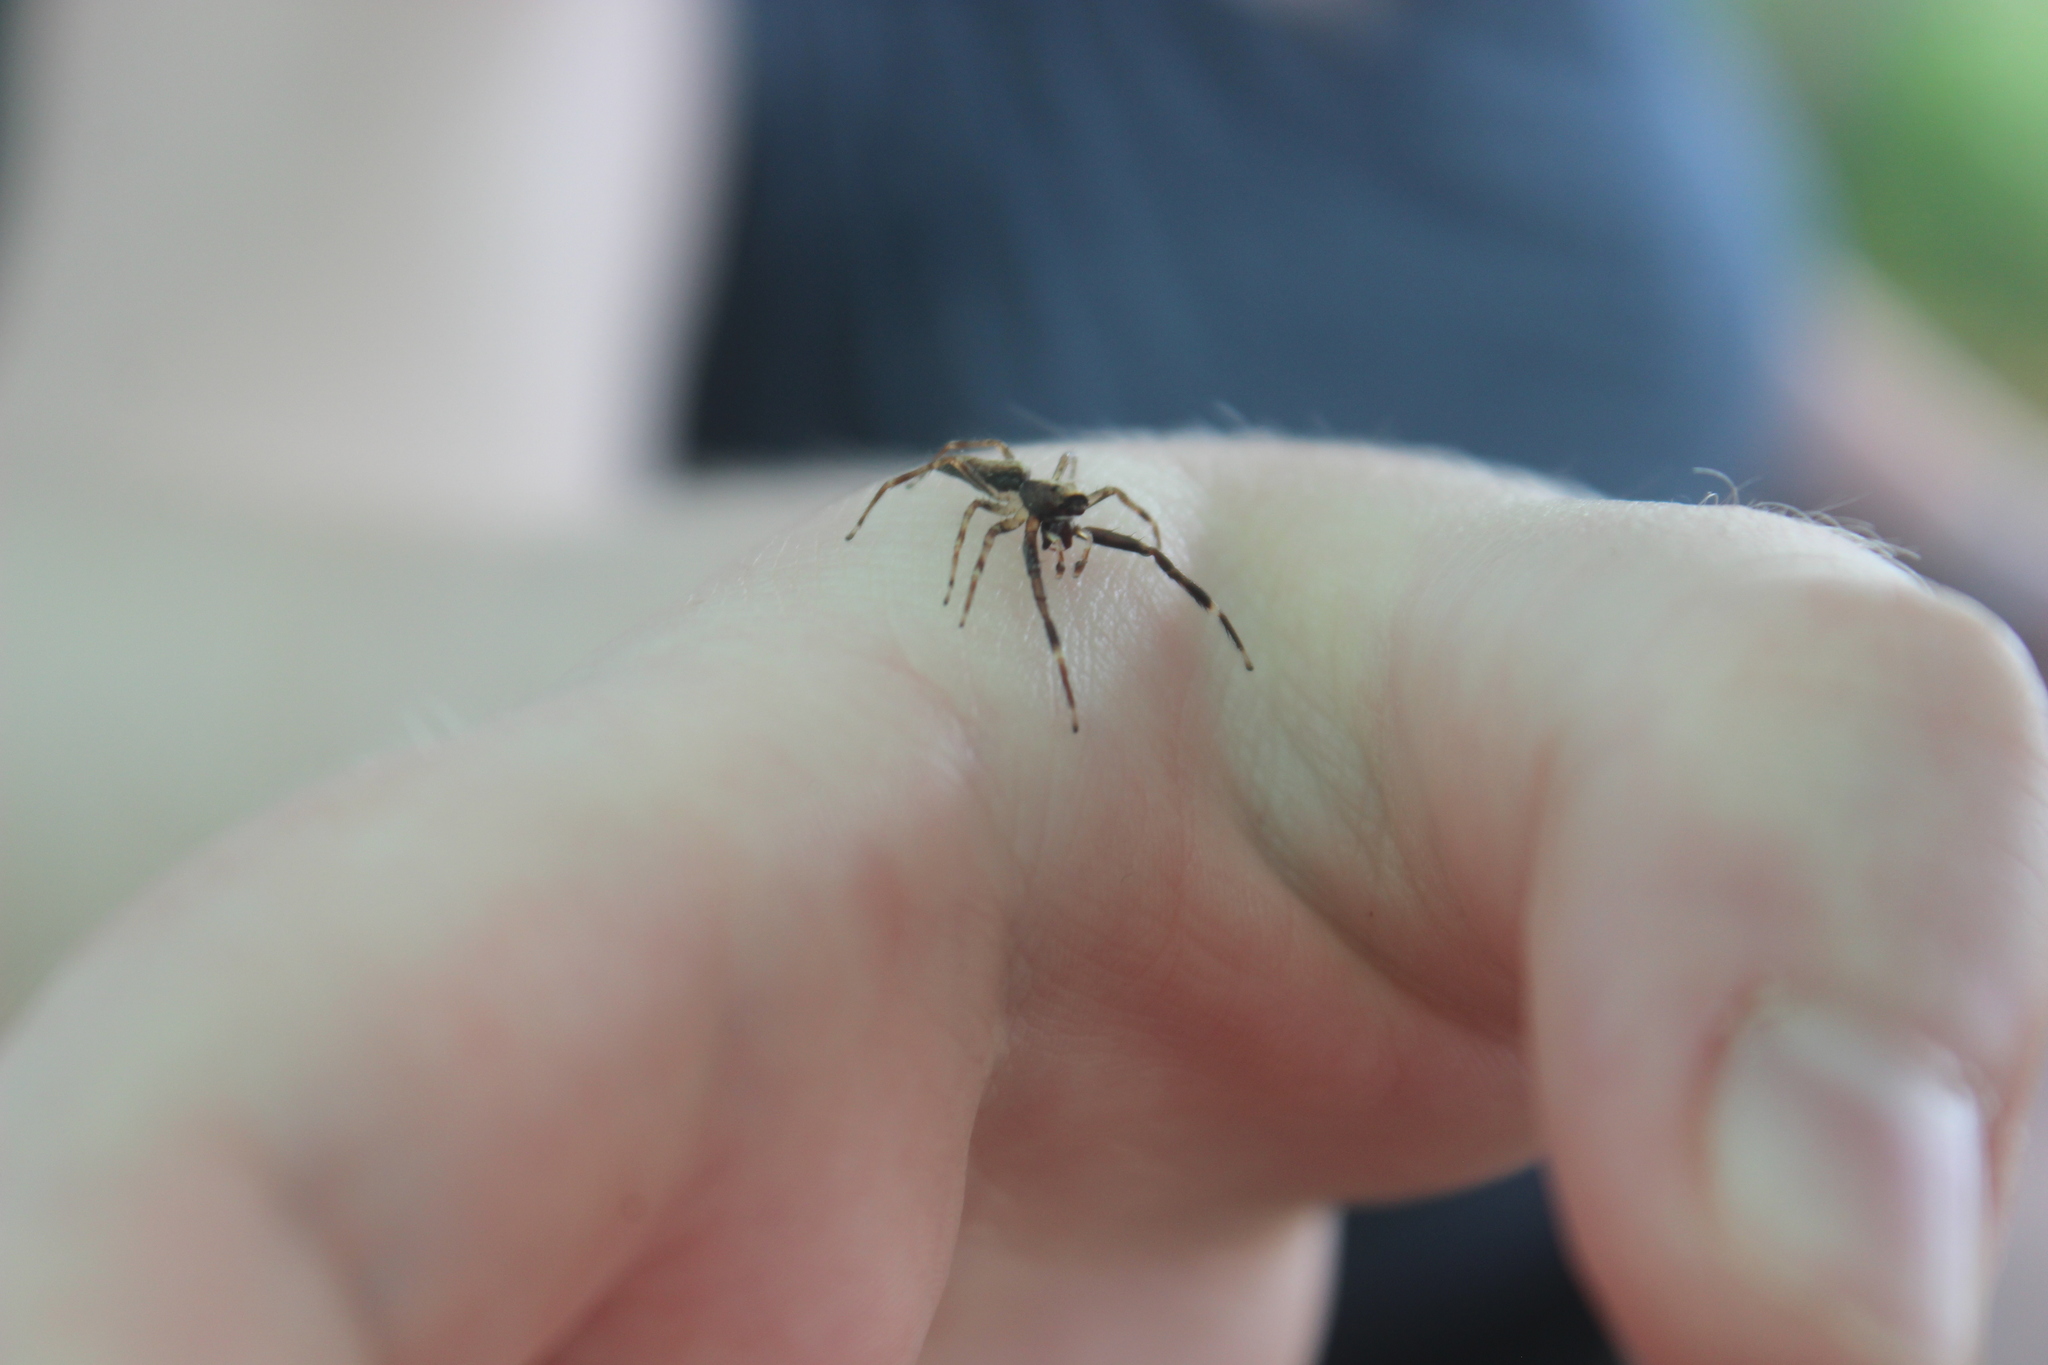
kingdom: Animalia
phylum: Arthropoda
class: Arachnida
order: Araneae
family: Salticidae
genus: Helpis
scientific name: Helpis minitabunda
